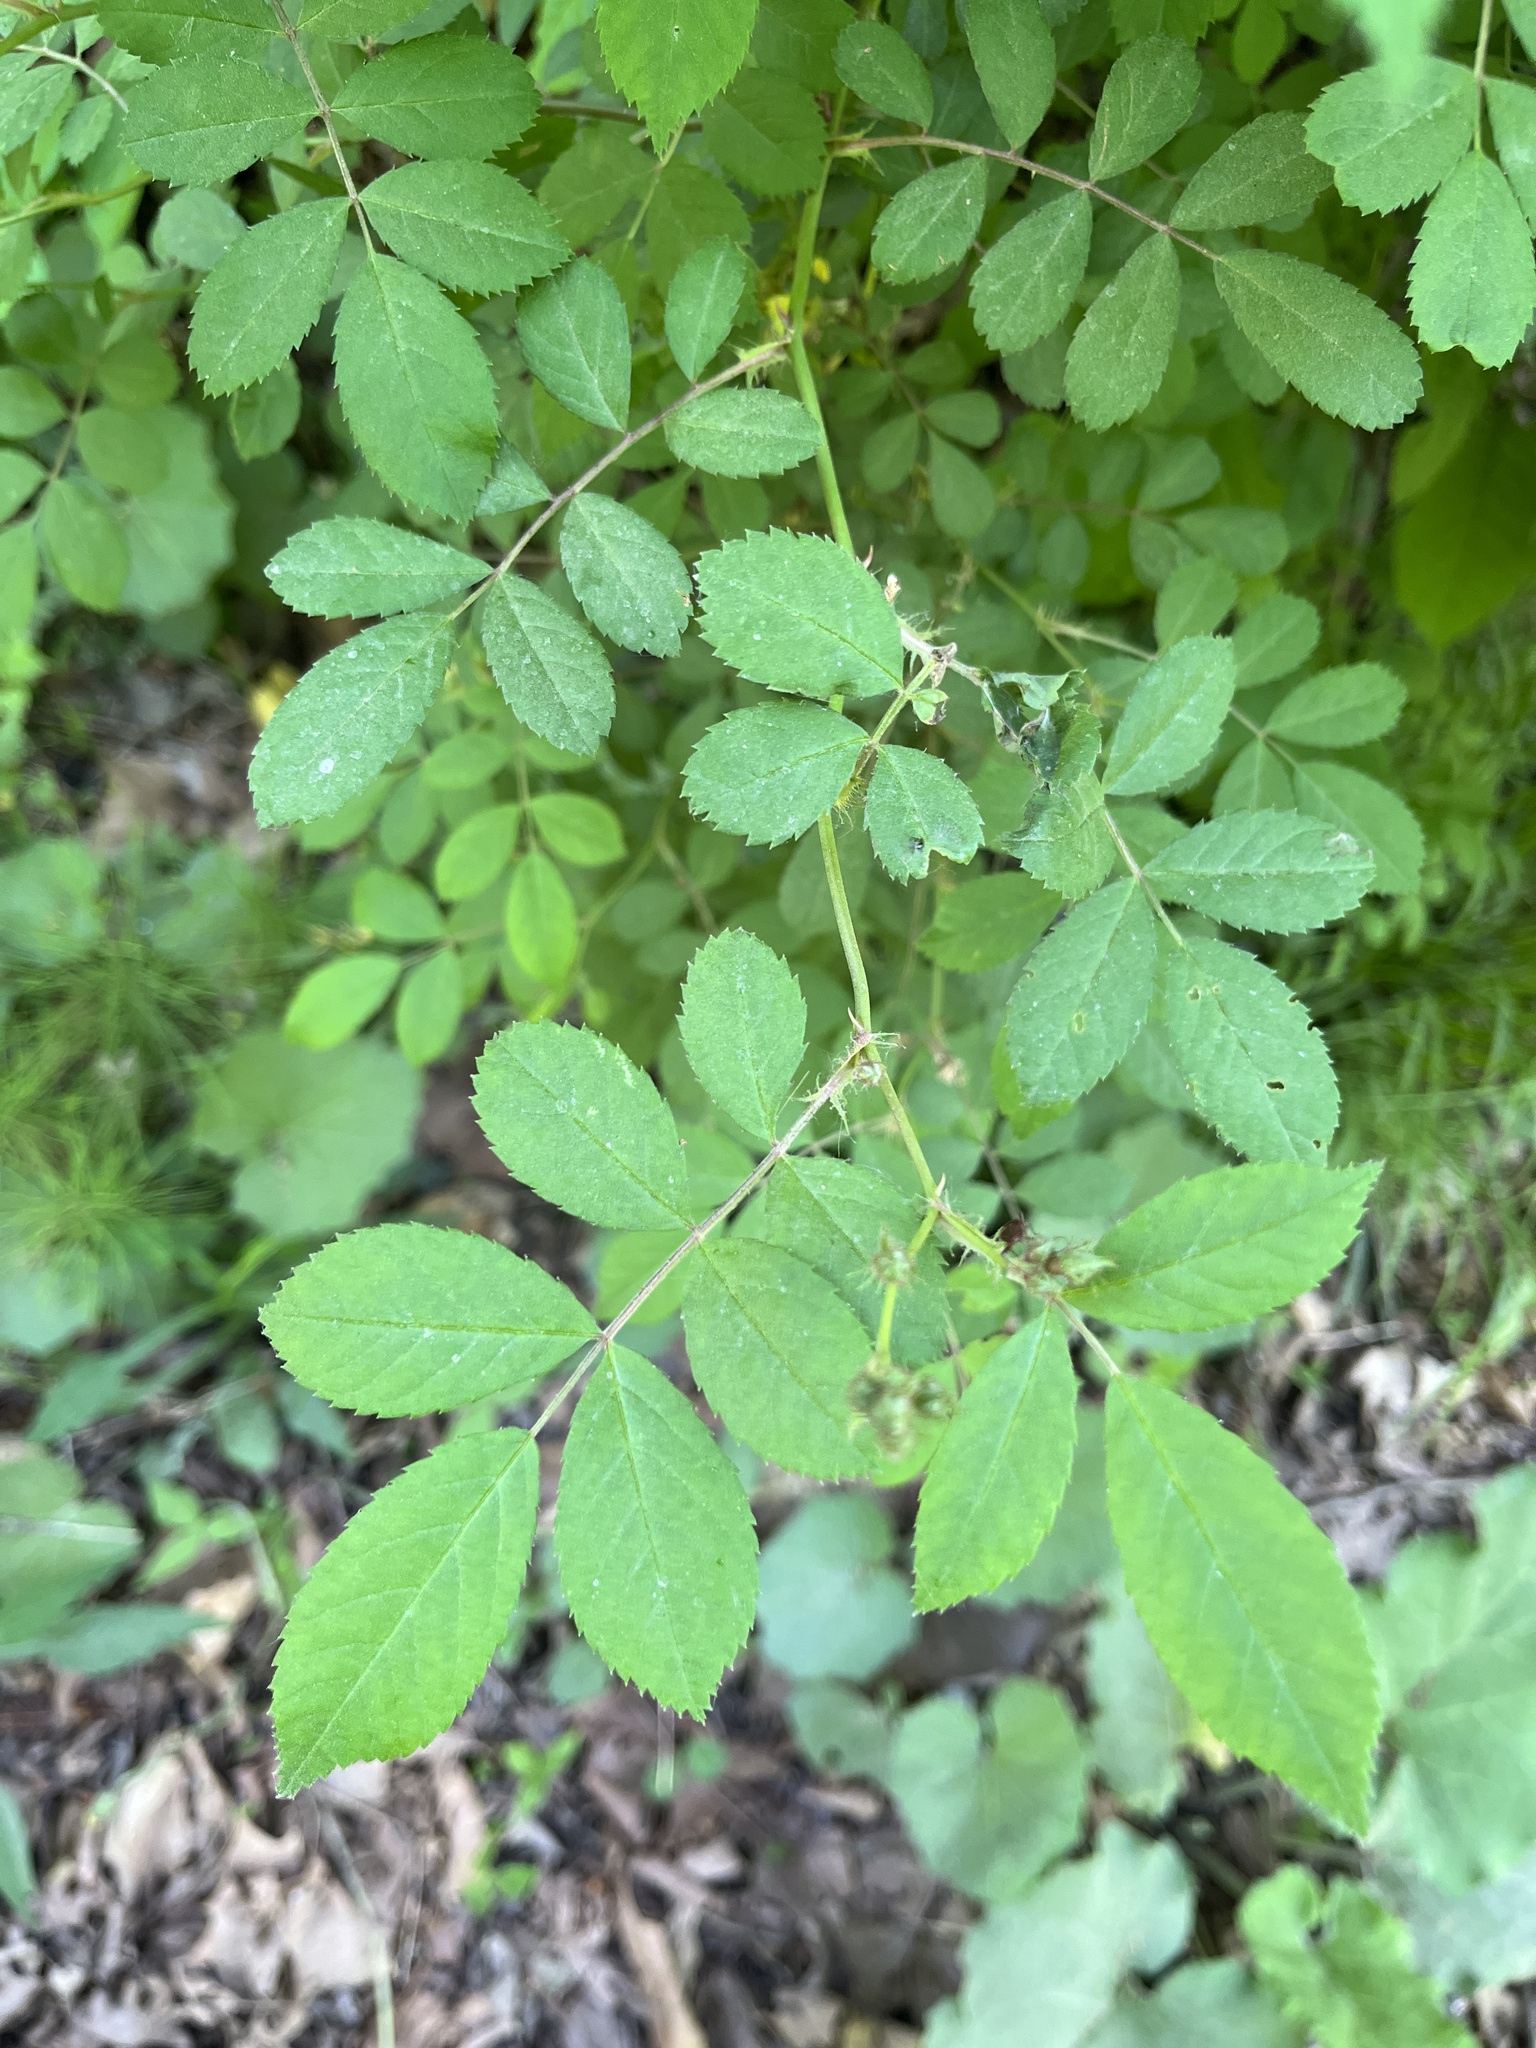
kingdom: Plantae
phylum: Tracheophyta
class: Magnoliopsida
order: Rosales
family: Rosaceae
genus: Rosa
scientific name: Rosa multiflora
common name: Multiflora rose
